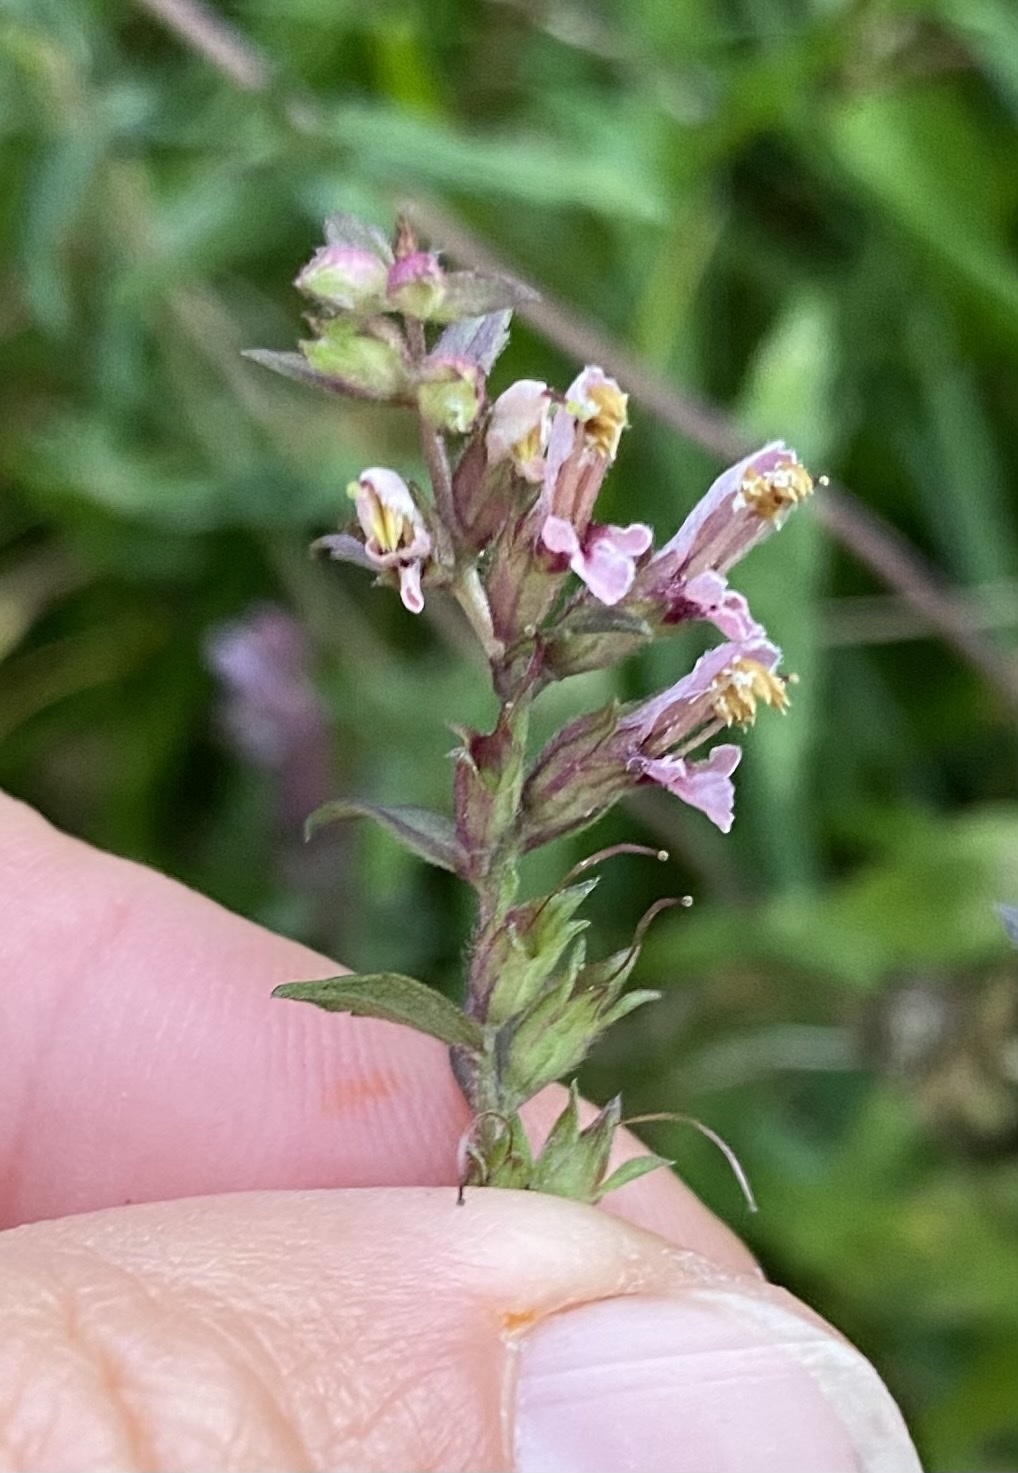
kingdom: Plantae
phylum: Tracheophyta
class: Magnoliopsida
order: Lamiales
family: Orobanchaceae
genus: Odontites
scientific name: Odontites vernus
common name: Red bartsia
